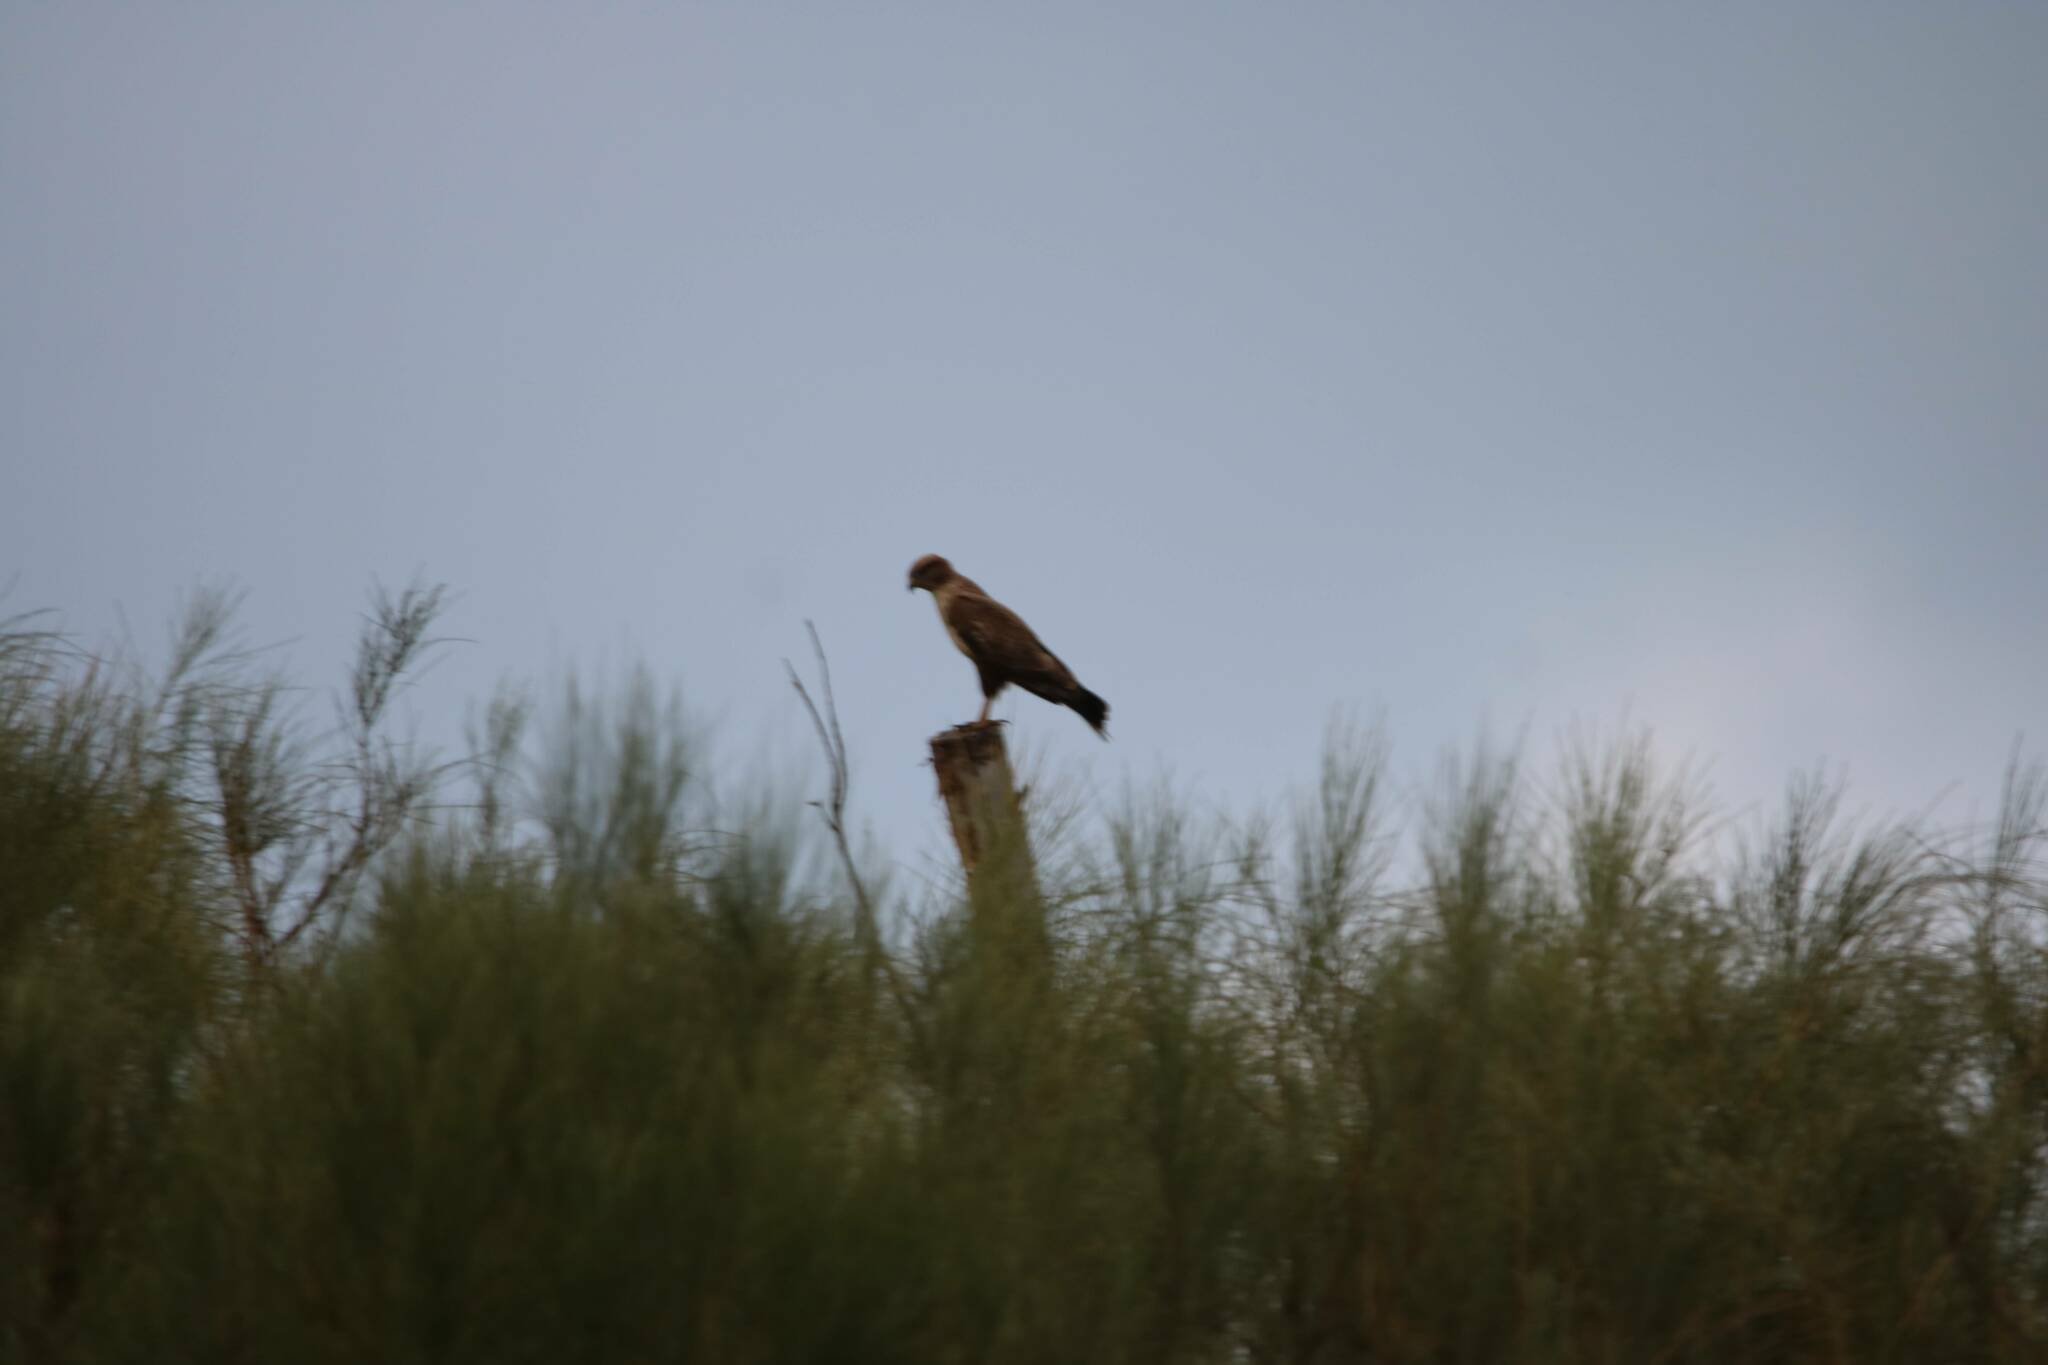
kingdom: Animalia
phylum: Chordata
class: Aves
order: Accipitriformes
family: Accipitridae
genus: Buteo
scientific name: Buteo rufinus
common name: Long-legged buzzard
